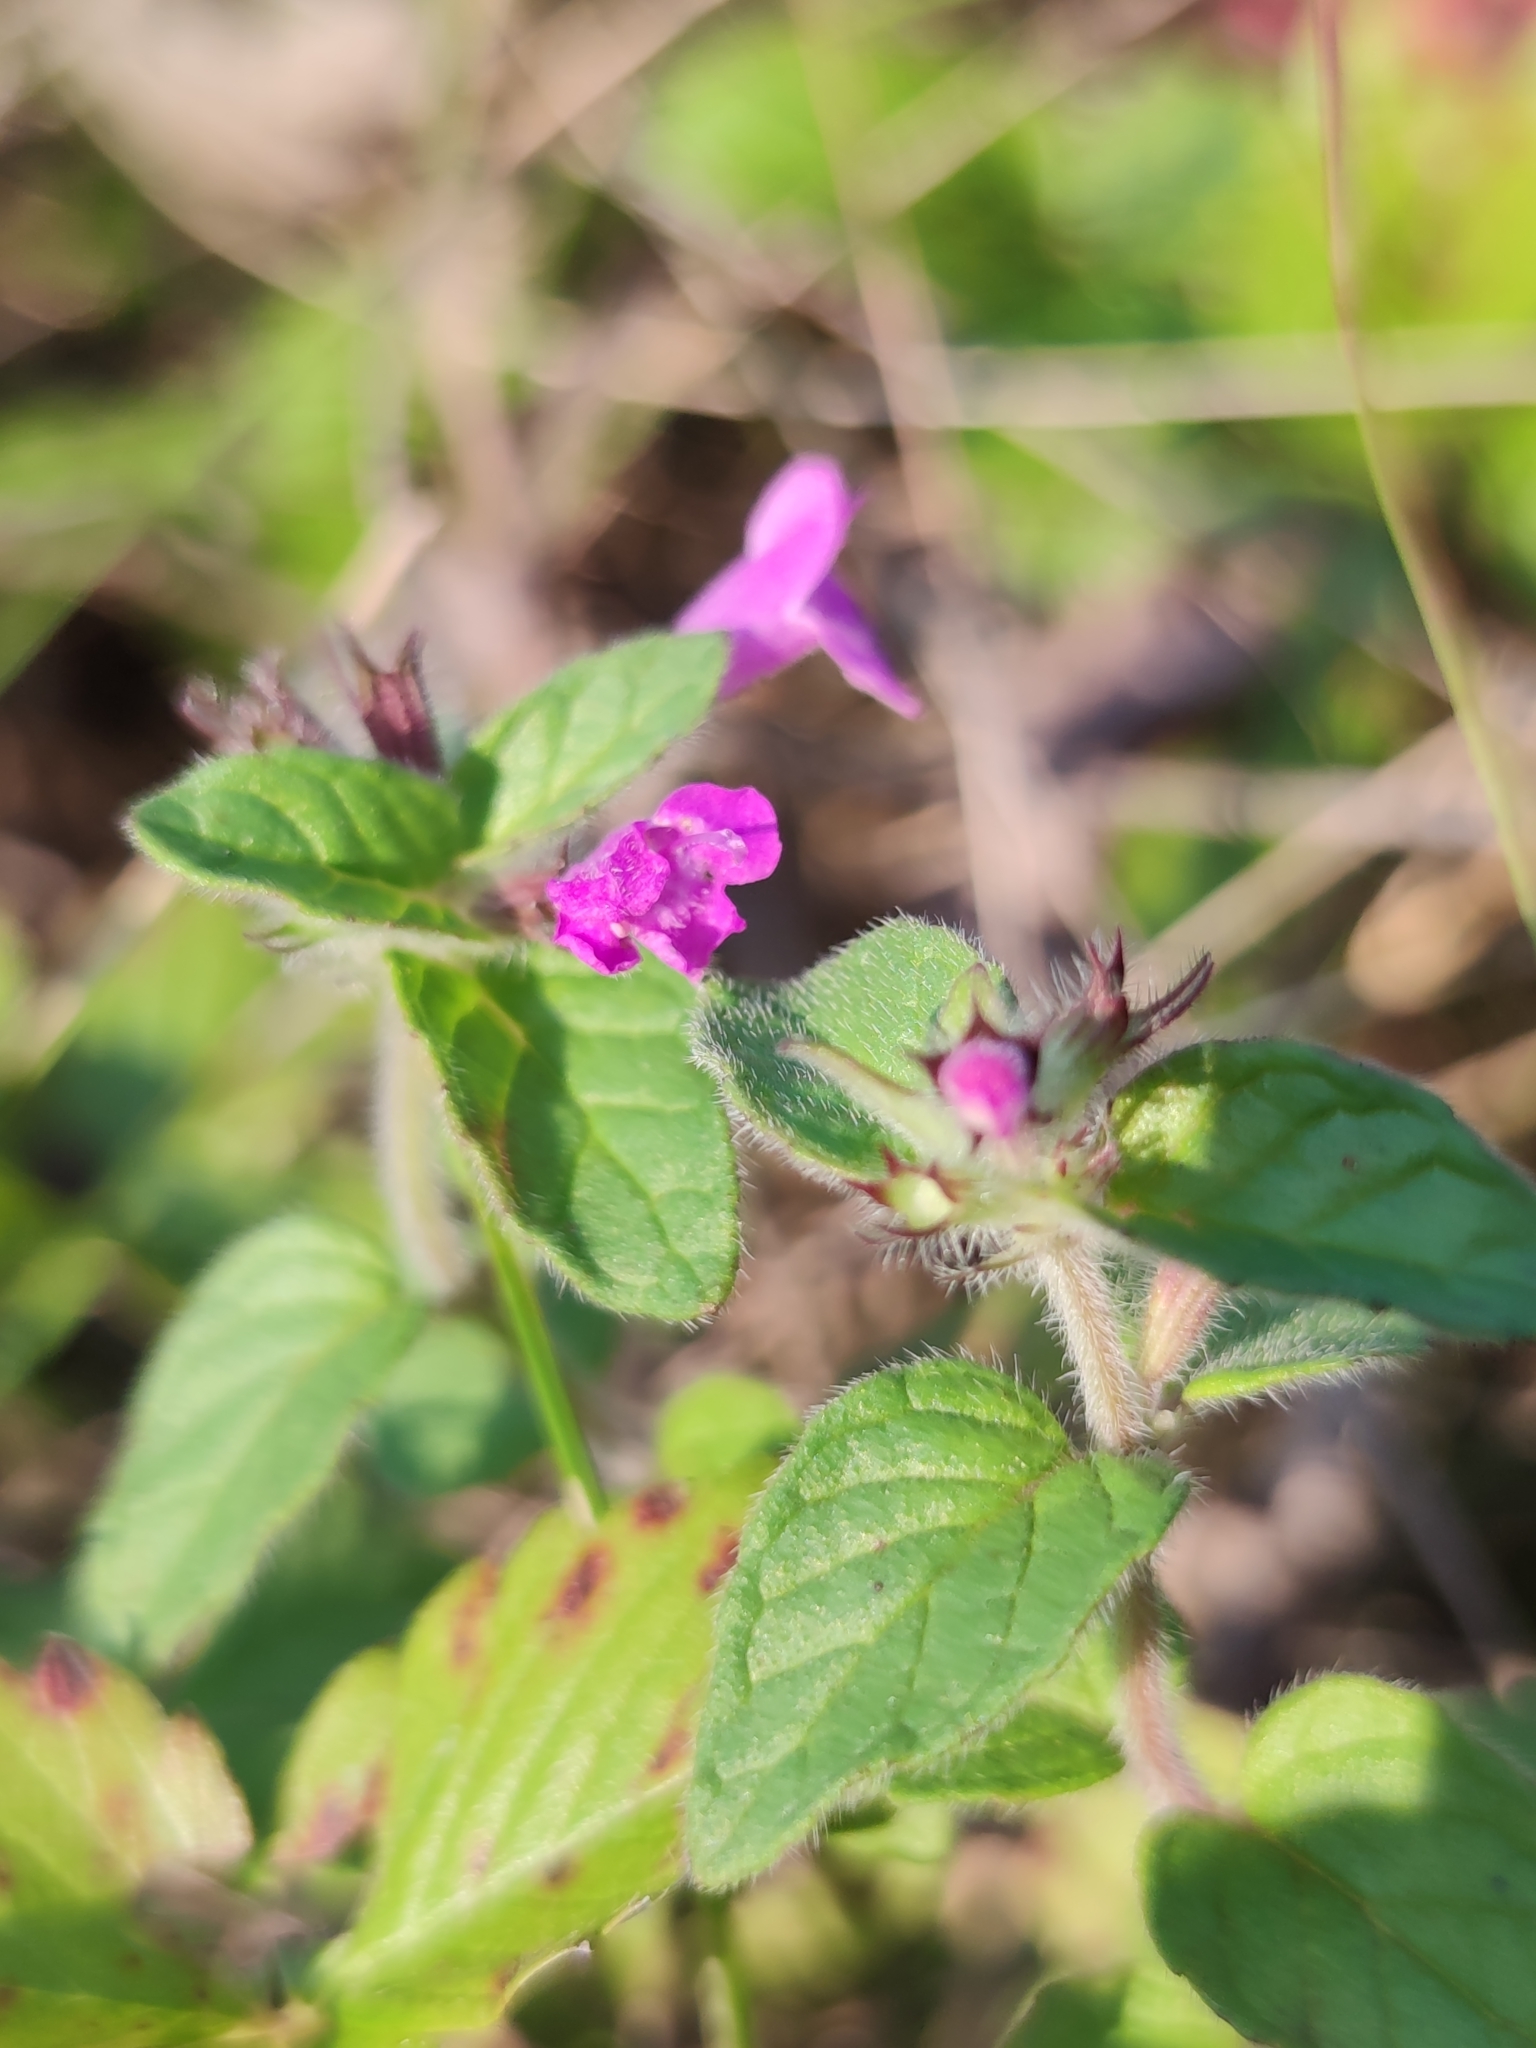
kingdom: Plantae
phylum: Tracheophyta
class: Magnoliopsida
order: Lamiales
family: Lamiaceae
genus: Clinopodium
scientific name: Clinopodium vulgare
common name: Wild basil
